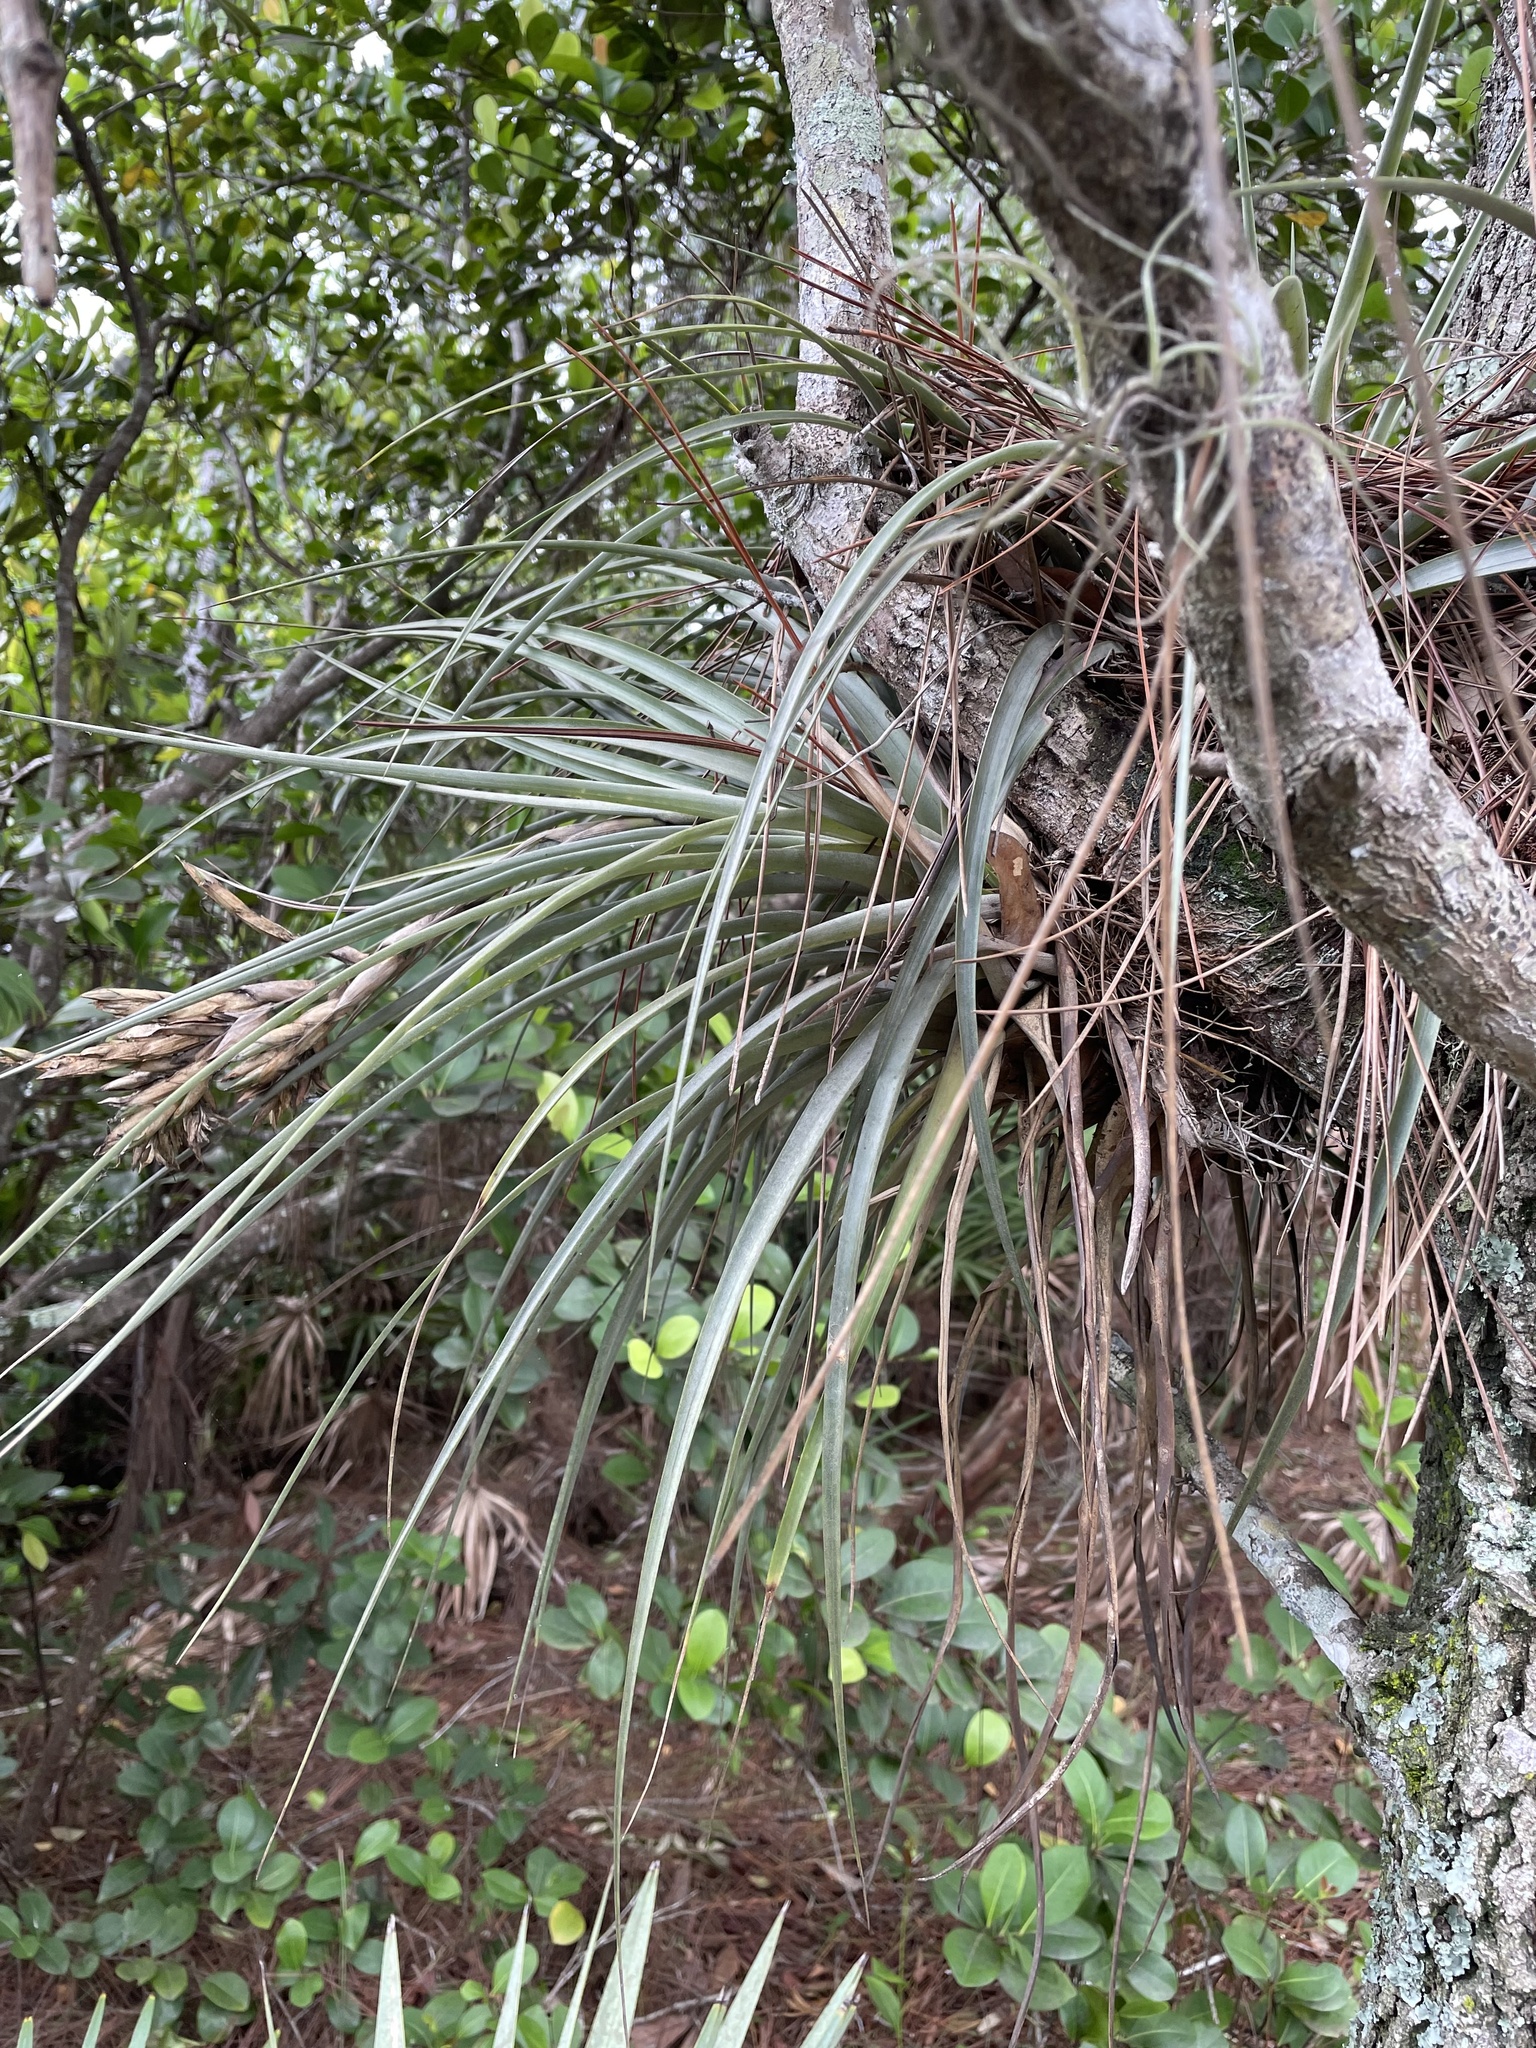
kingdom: Plantae
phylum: Tracheophyta
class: Liliopsida
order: Poales
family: Bromeliaceae
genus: Tillandsia
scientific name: Tillandsia fasciculata
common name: Giant airplant
